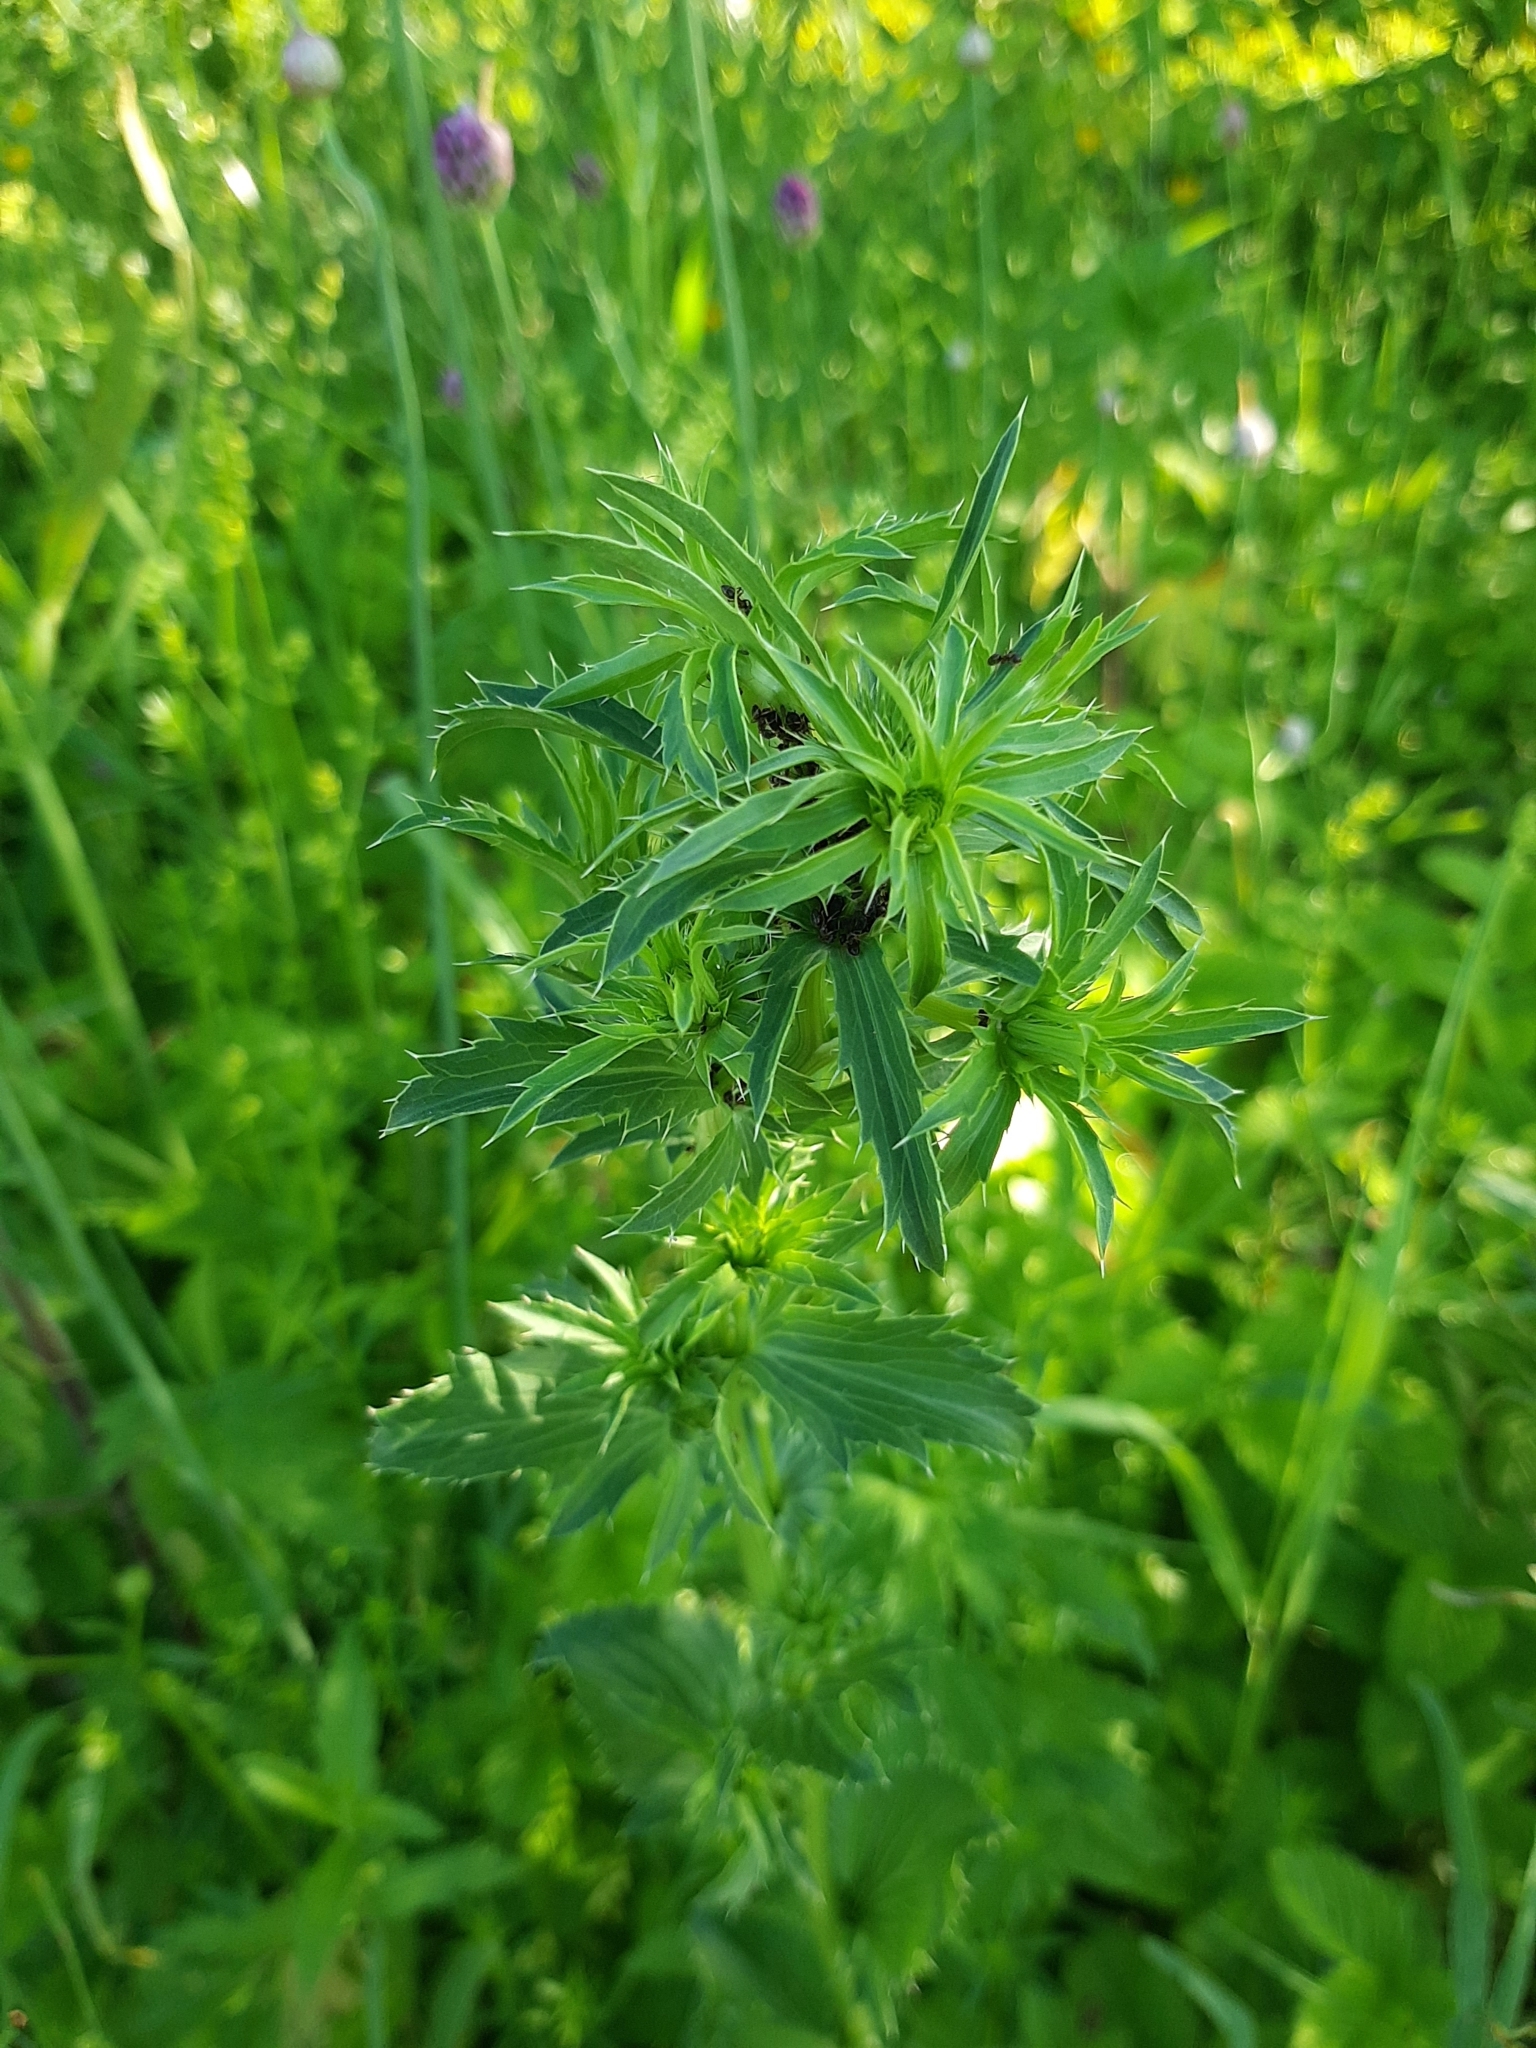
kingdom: Plantae
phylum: Tracheophyta
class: Magnoliopsida
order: Apiales
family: Apiaceae
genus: Eryngium
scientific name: Eryngium planum
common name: Blue eryngo
